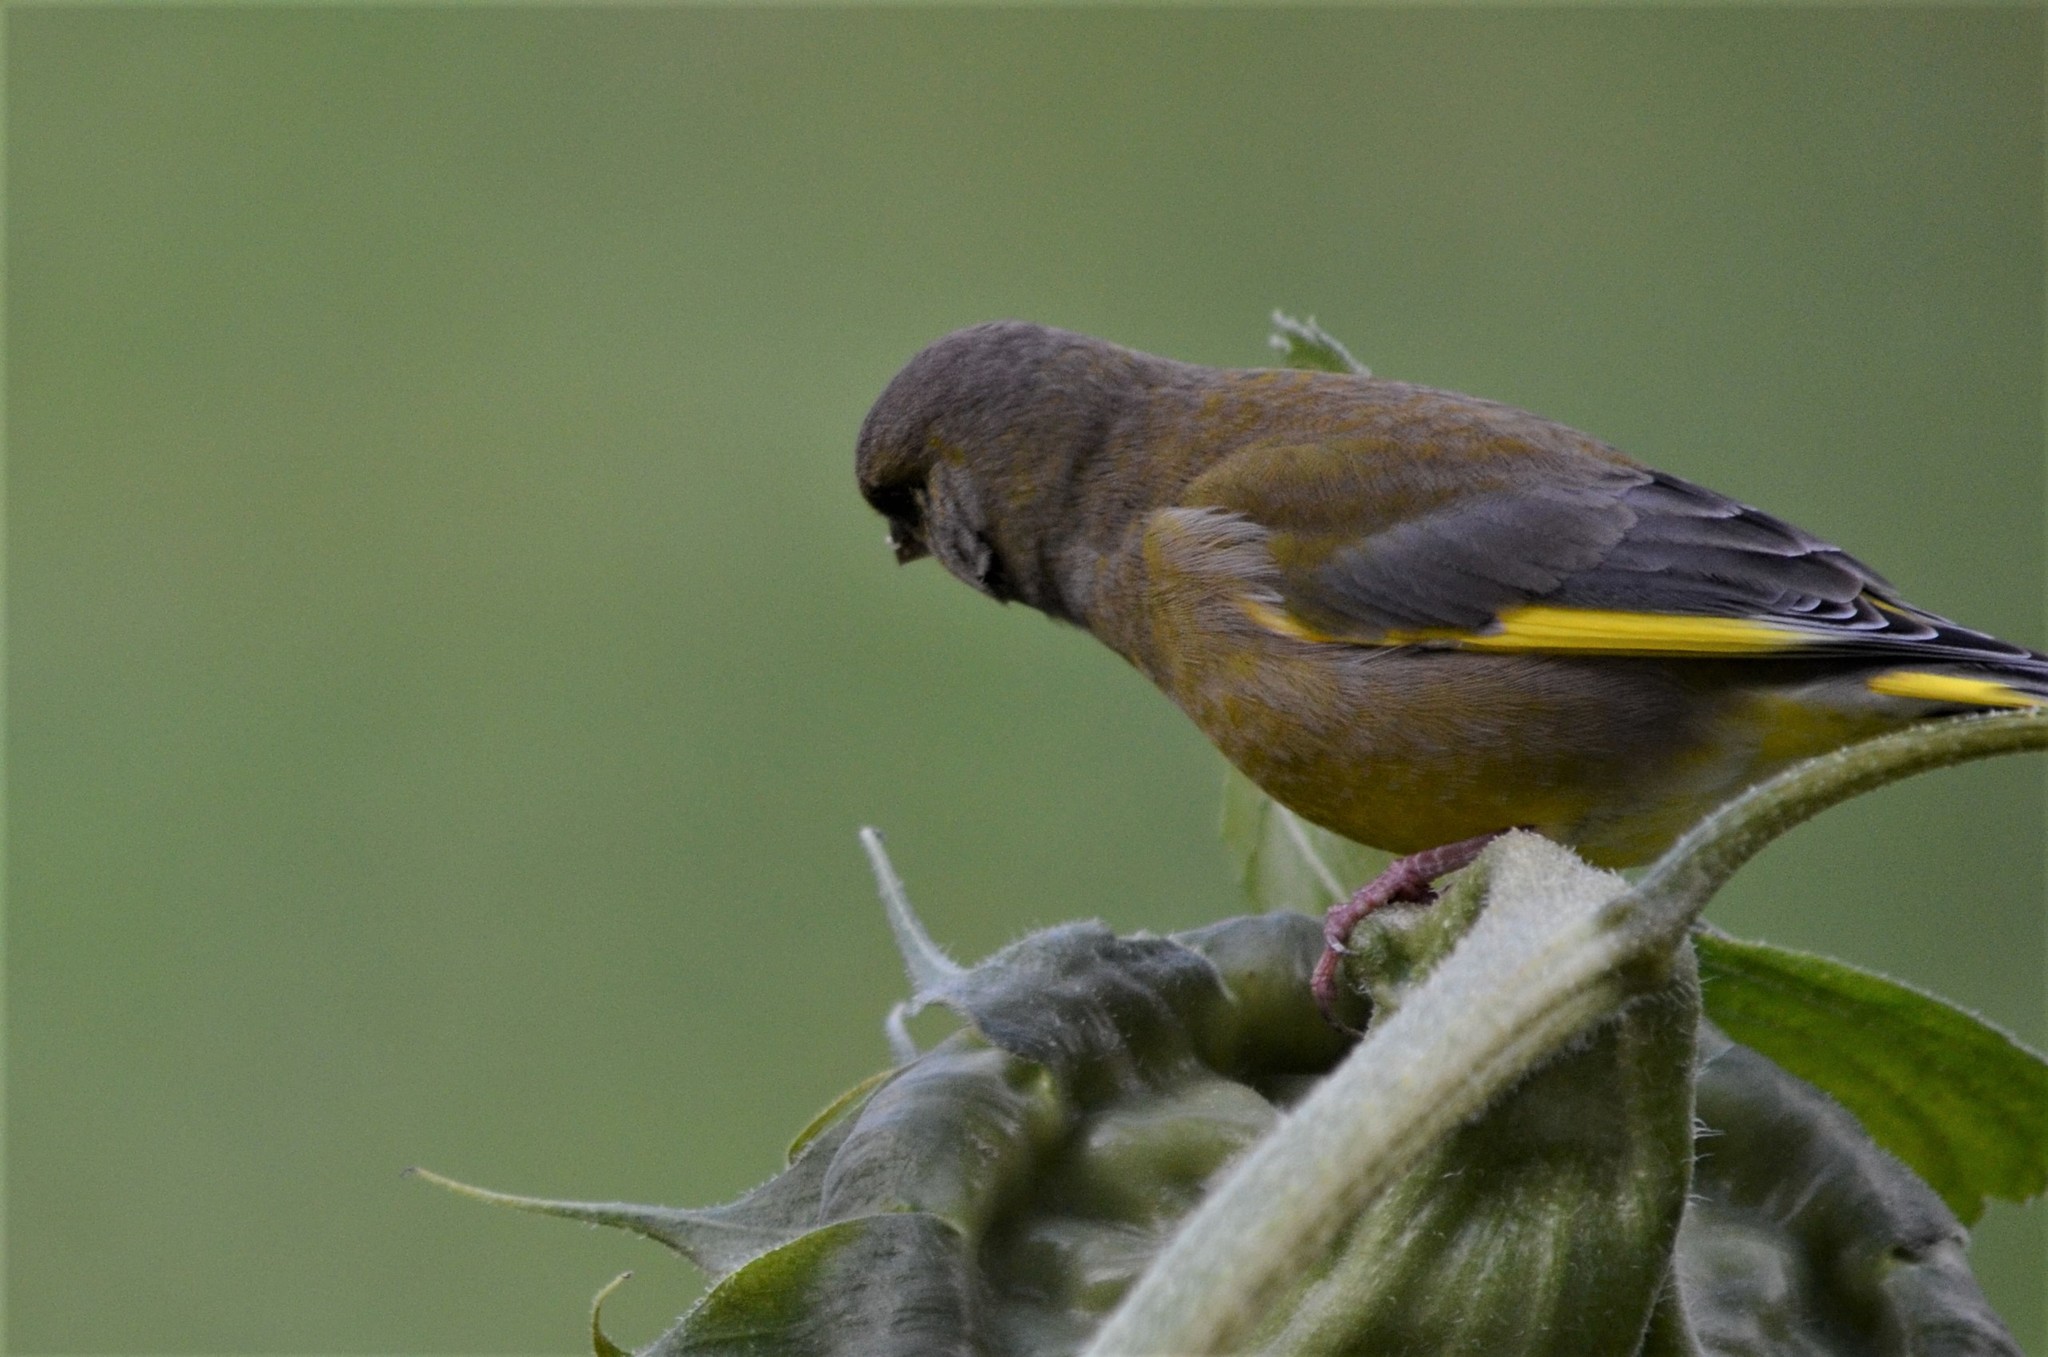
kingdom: Plantae
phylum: Tracheophyta
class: Liliopsida
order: Poales
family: Poaceae
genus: Chloris
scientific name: Chloris chloris
